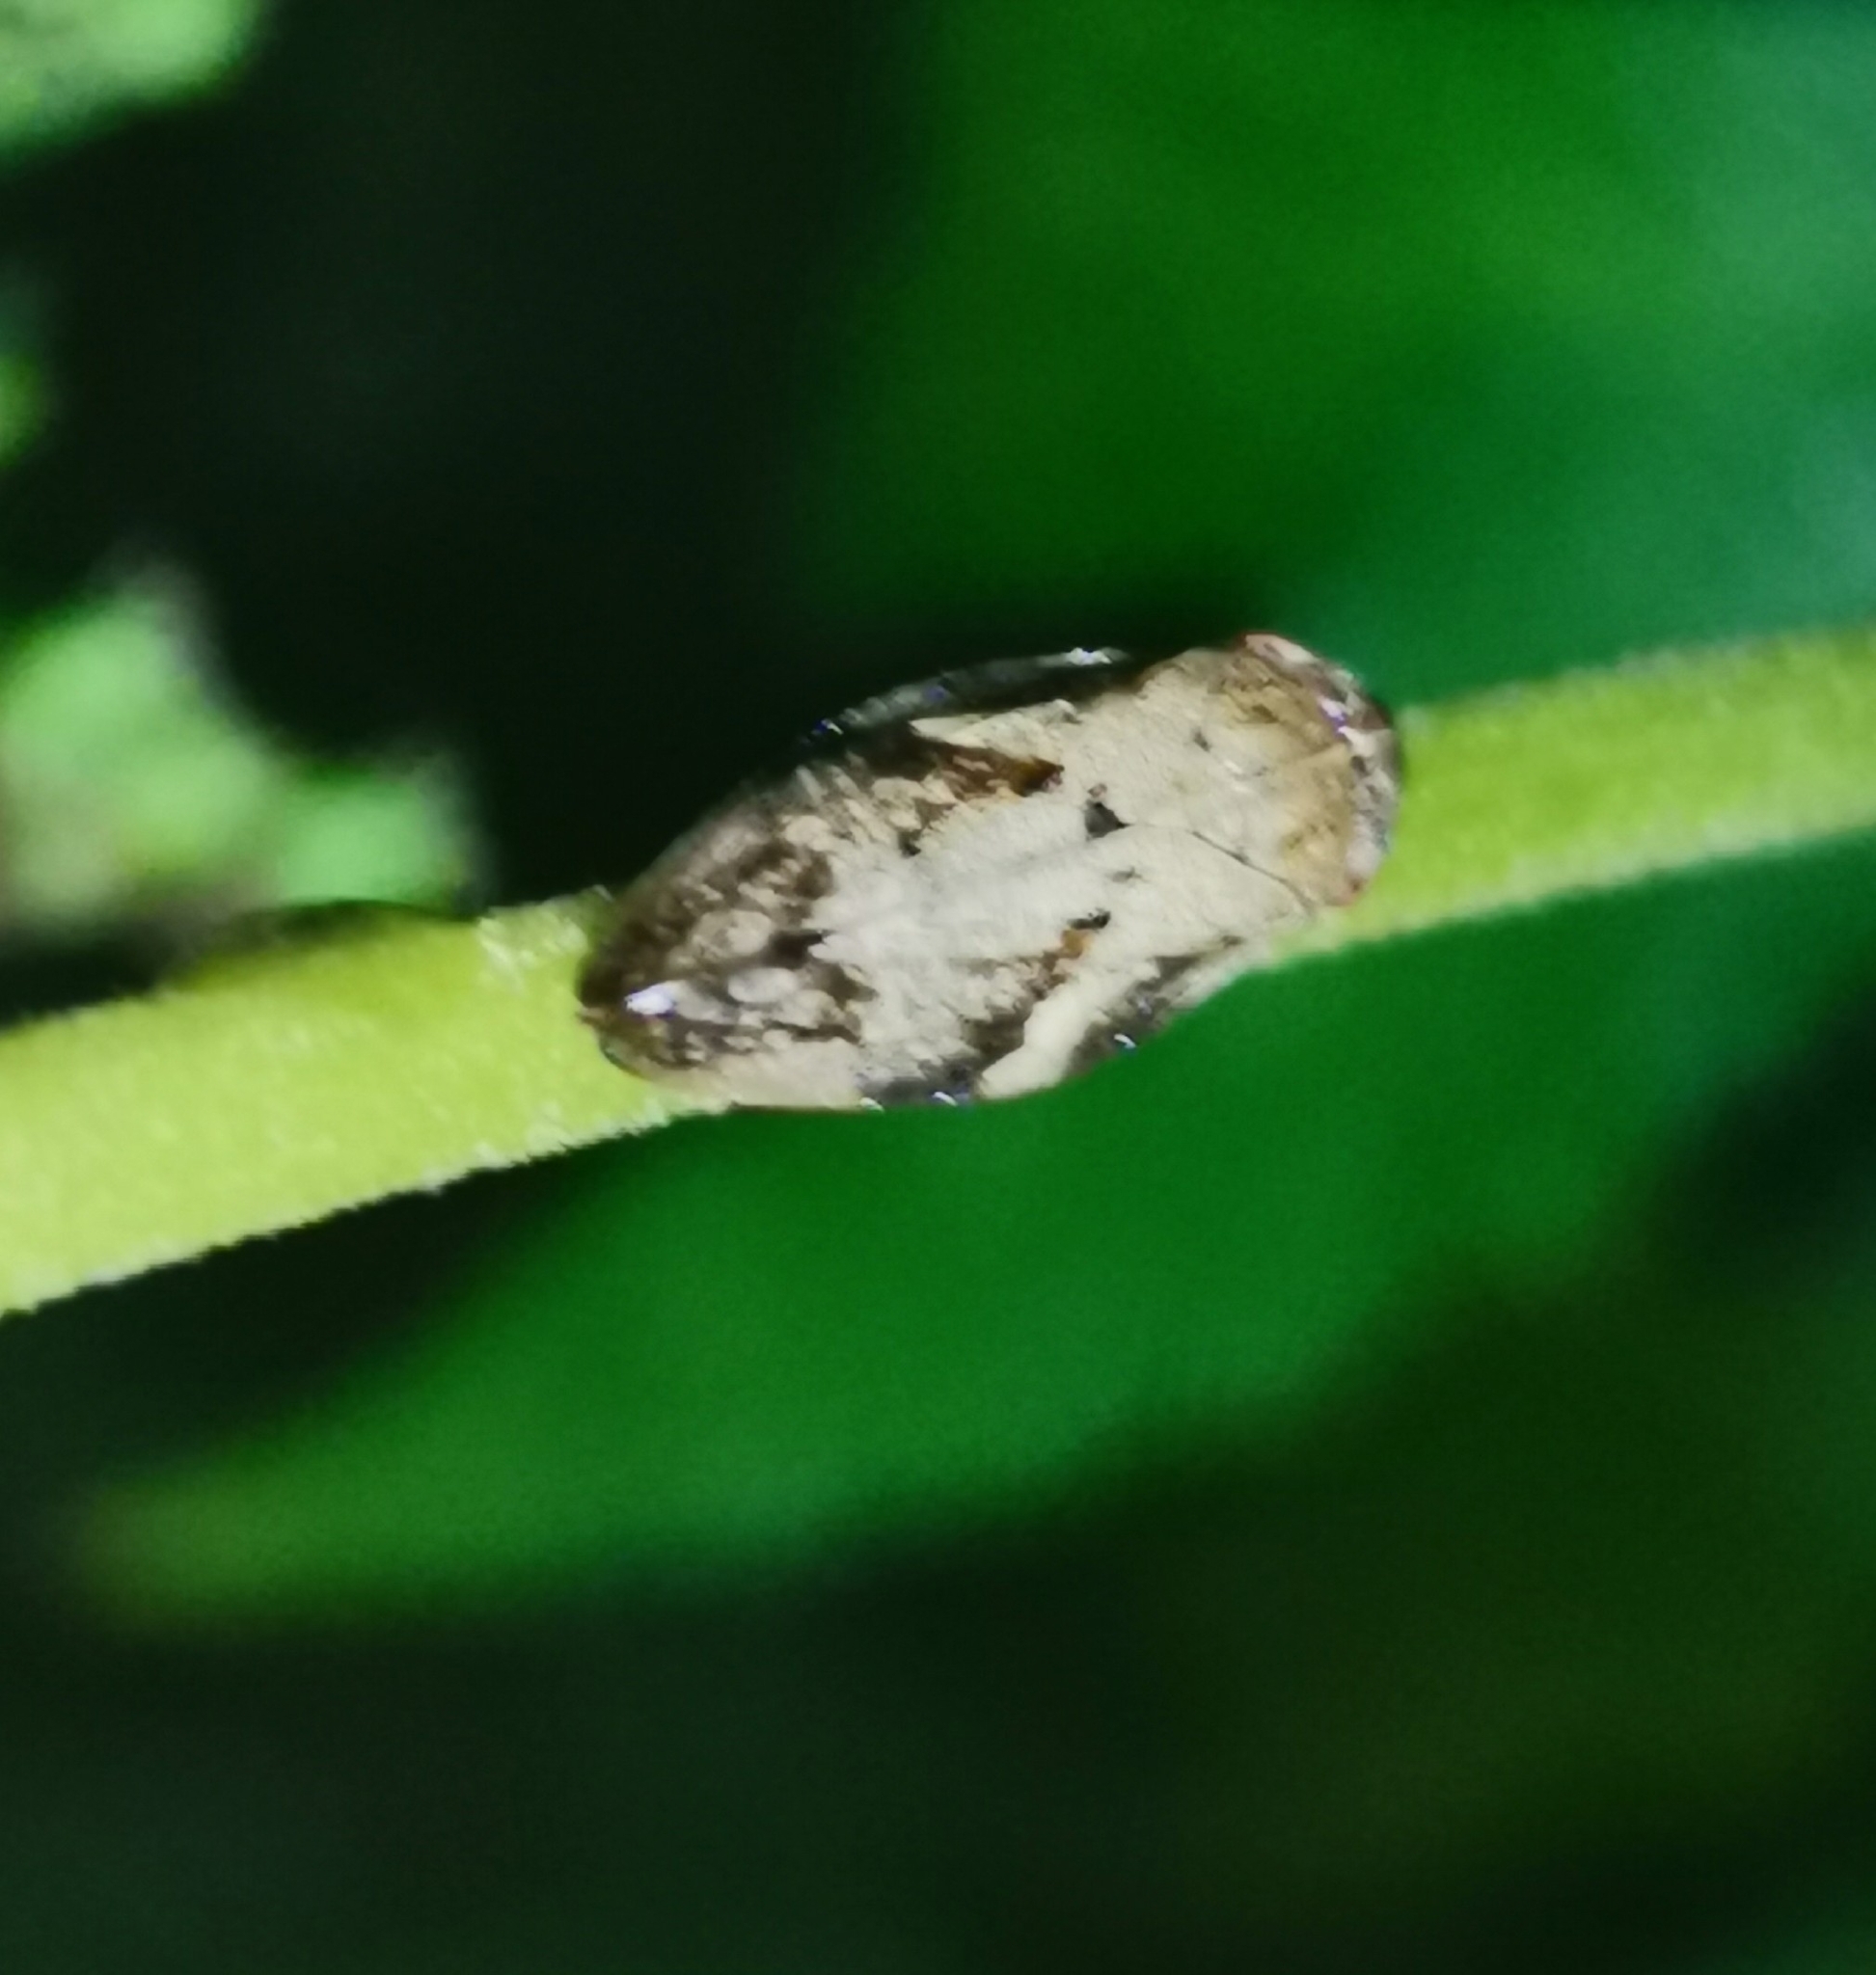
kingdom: Animalia
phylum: Arthropoda
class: Insecta
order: Hemiptera
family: Aphrophoridae
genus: Philaenus
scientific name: Philaenus spumarius
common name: Meadow spittlebug
